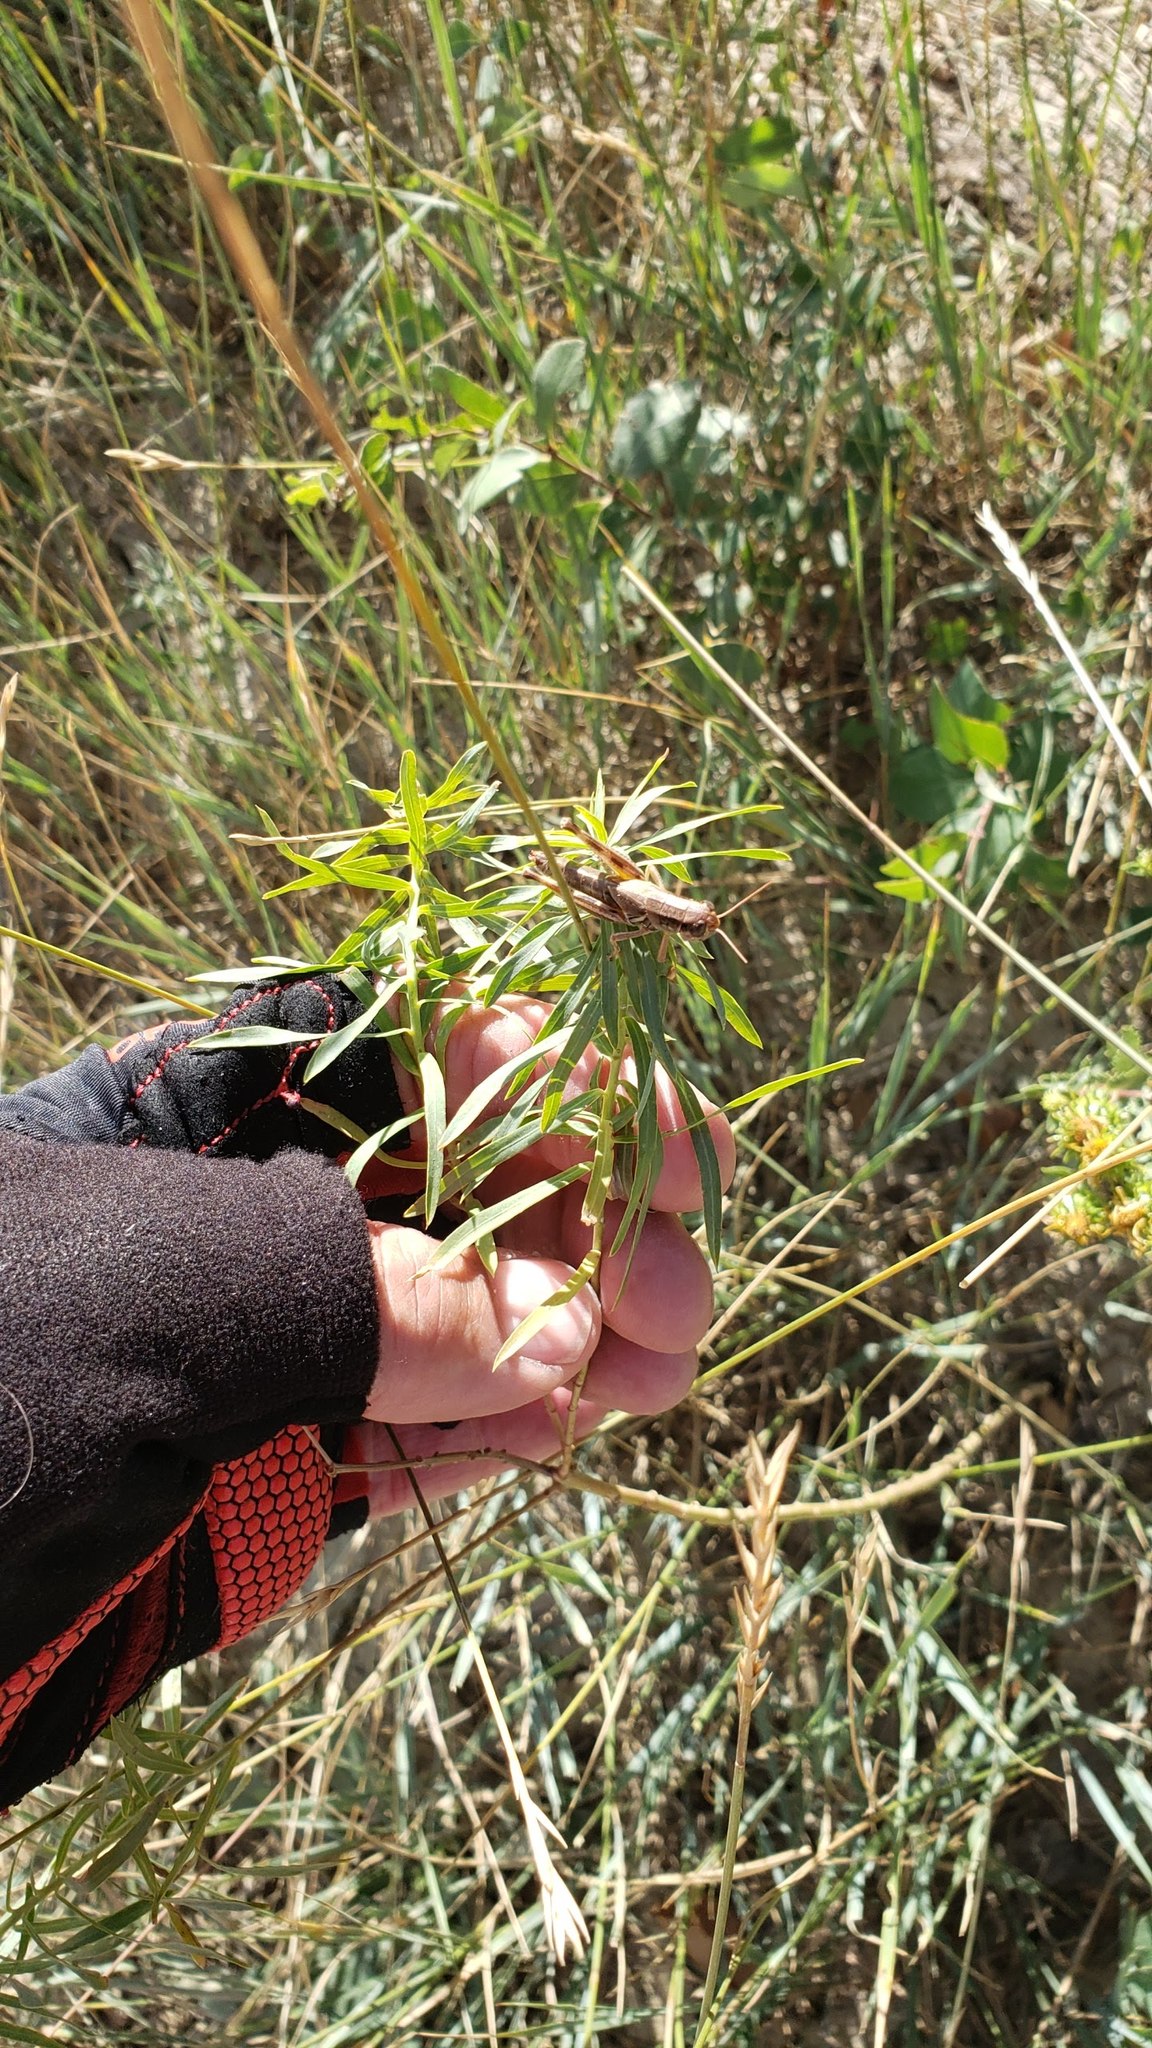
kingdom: Animalia
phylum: Arthropoda
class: Insecta
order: Orthoptera
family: Acrididae
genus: Phoetaliotes
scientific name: Phoetaliotes nebrascensis
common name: Large-headed grasshopper
